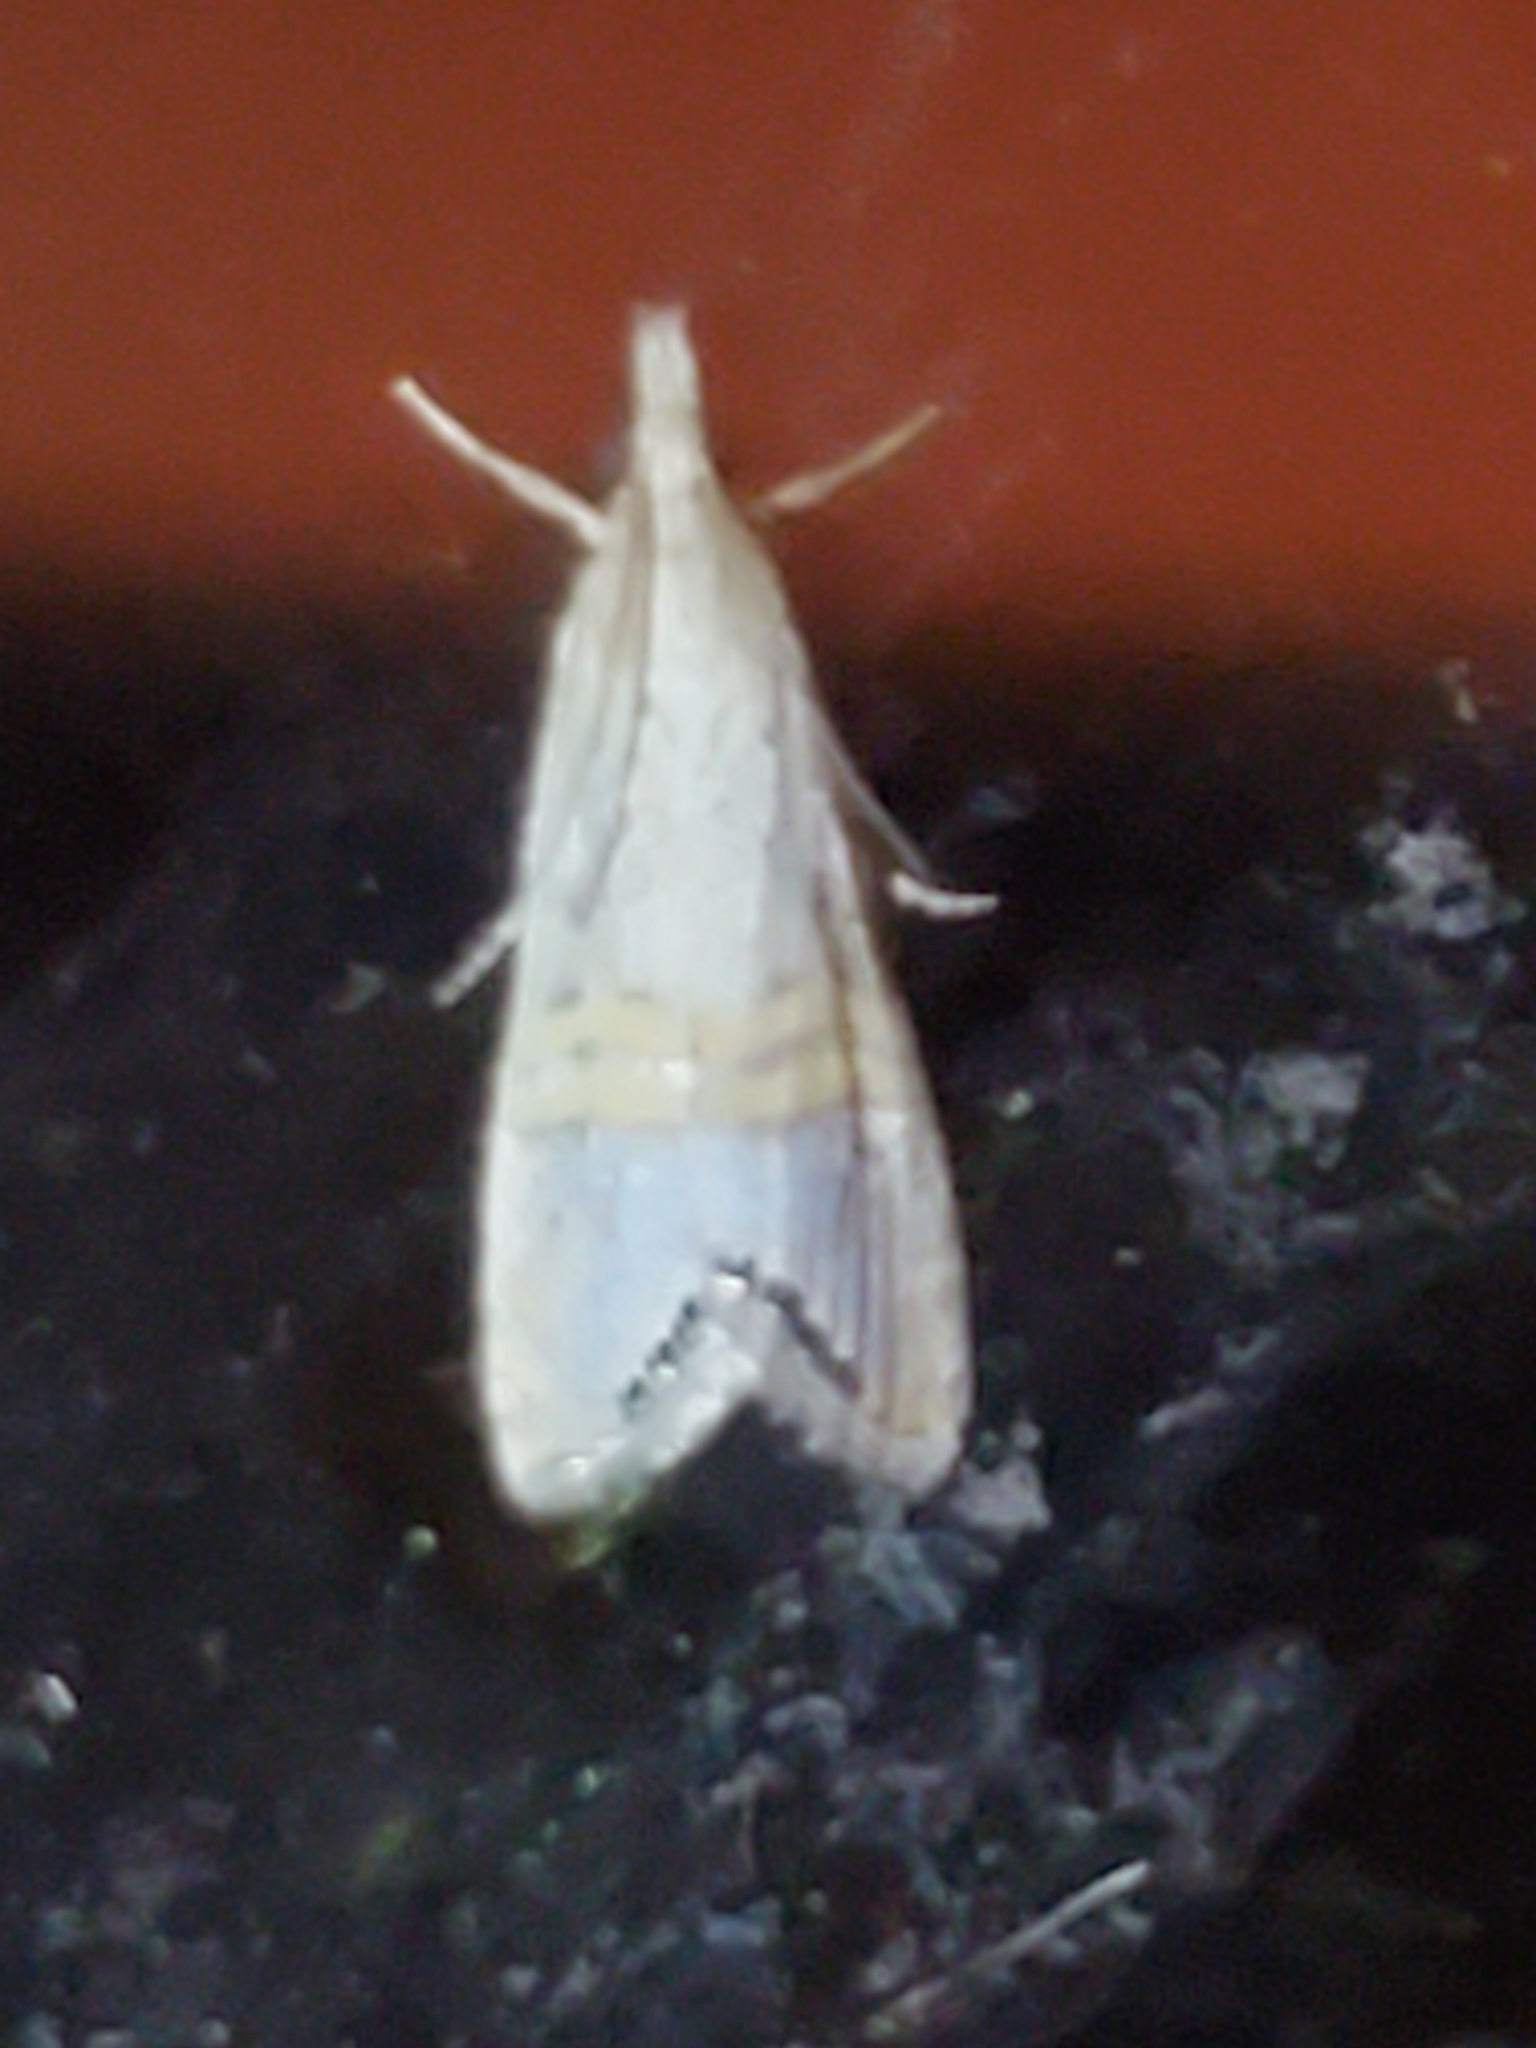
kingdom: Animalia
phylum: Arthropoda
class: Insecta
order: Lepidoptera
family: Crambidae
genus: Euchromius
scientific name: Euchromius ocellea
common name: Necklace veneer moth
